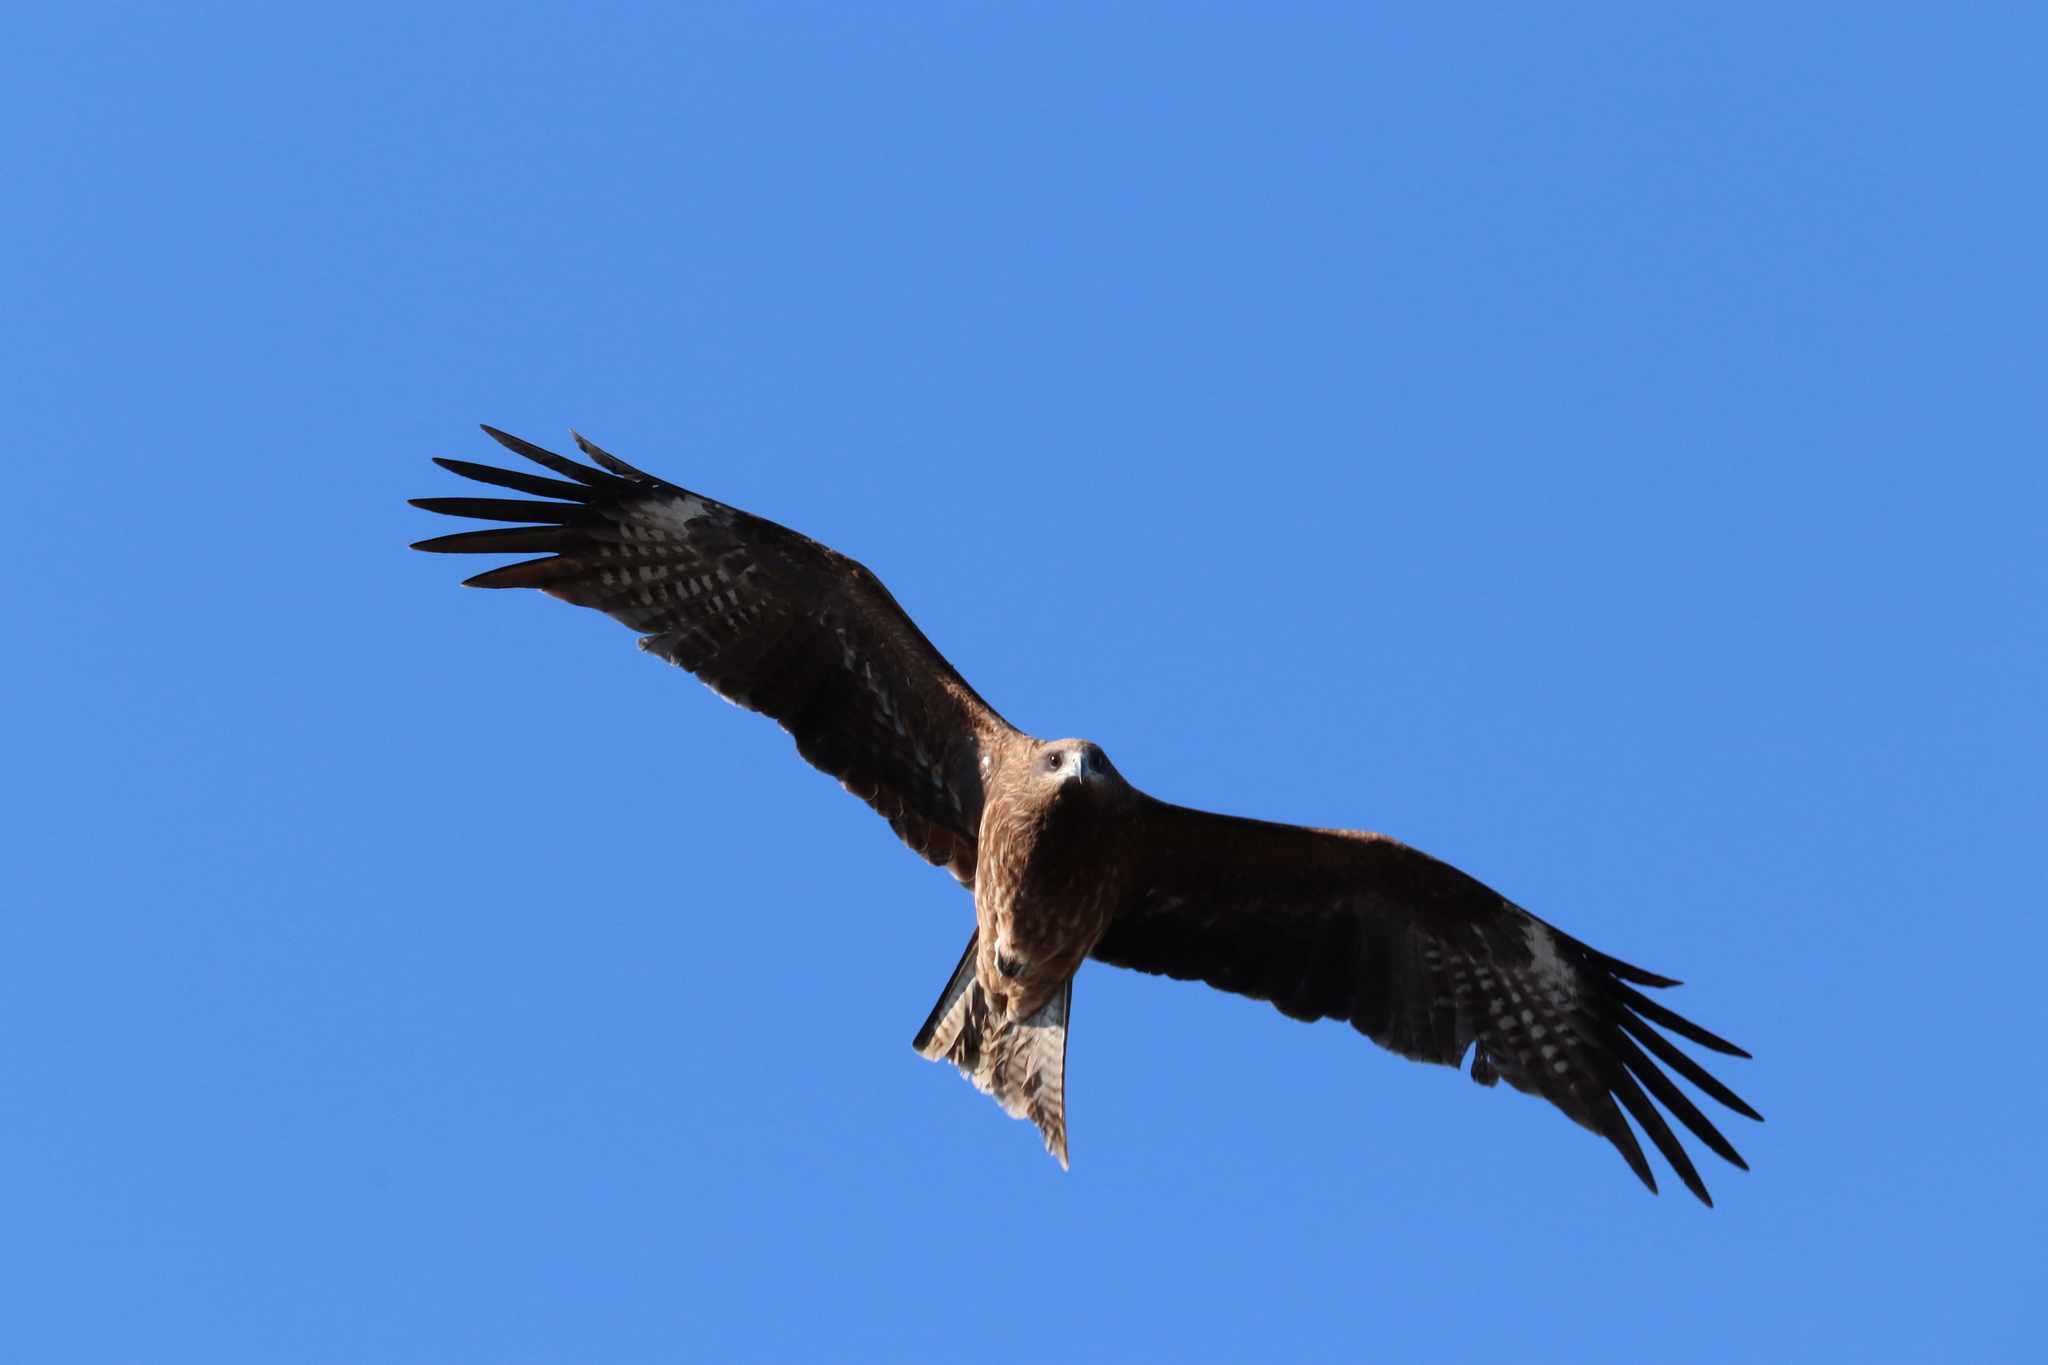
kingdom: Animalia
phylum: Chordata
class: Aves
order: Accipitriformes
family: Accipitridae
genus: Milvus
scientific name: Milvus migrans
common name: Black kite
